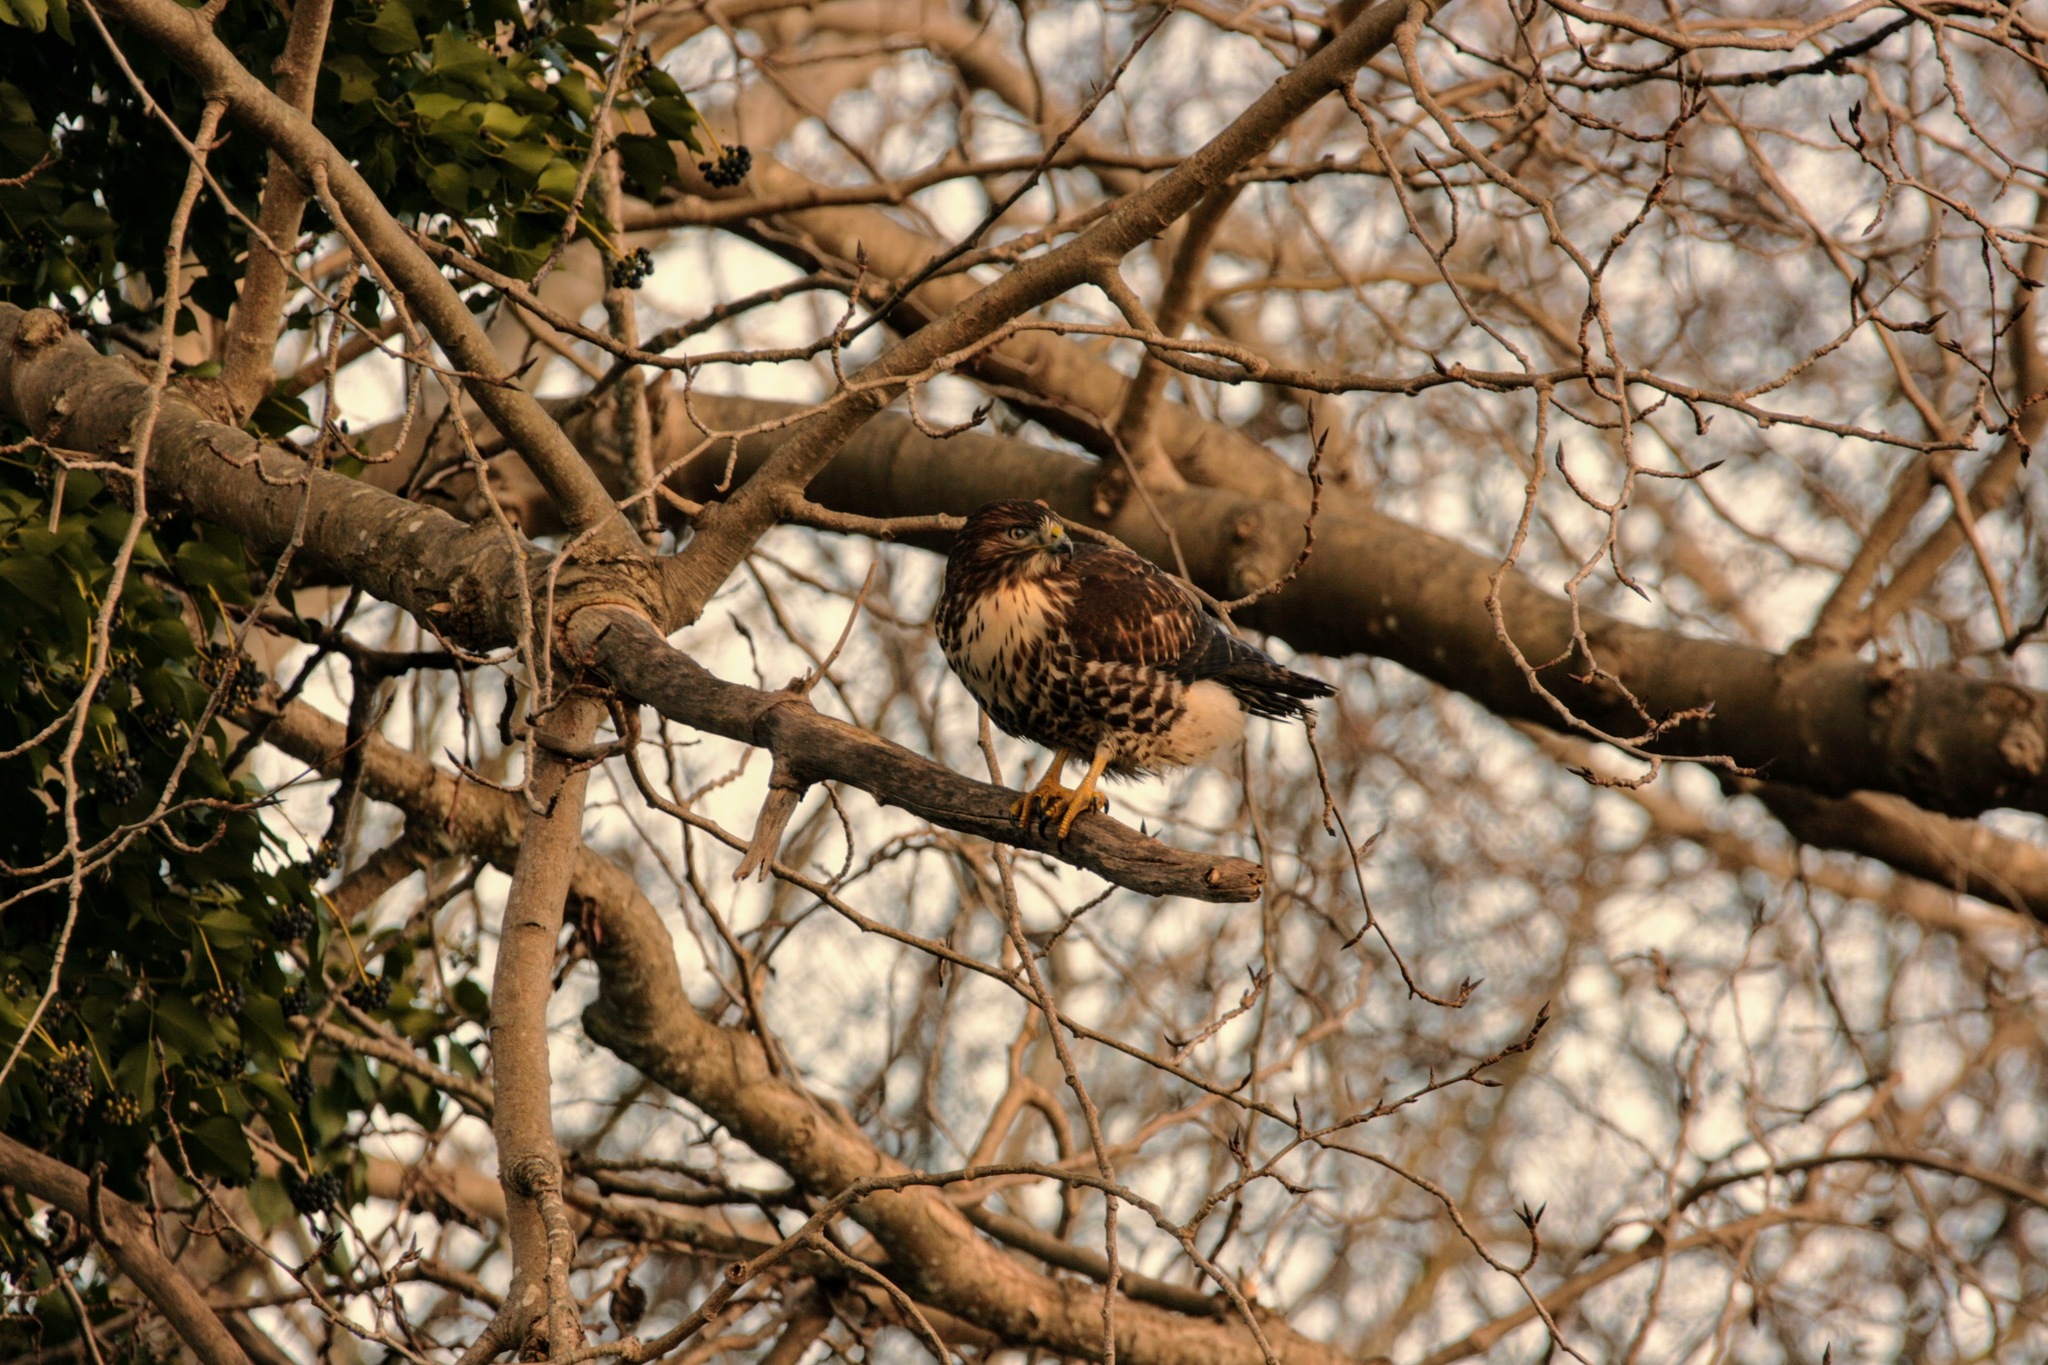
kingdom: Animalia
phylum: Chordata
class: Aves
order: Accipitriformes
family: Accipitridae
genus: Buteo
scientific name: Buteo jamaicensis
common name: Red-tailed hawk
